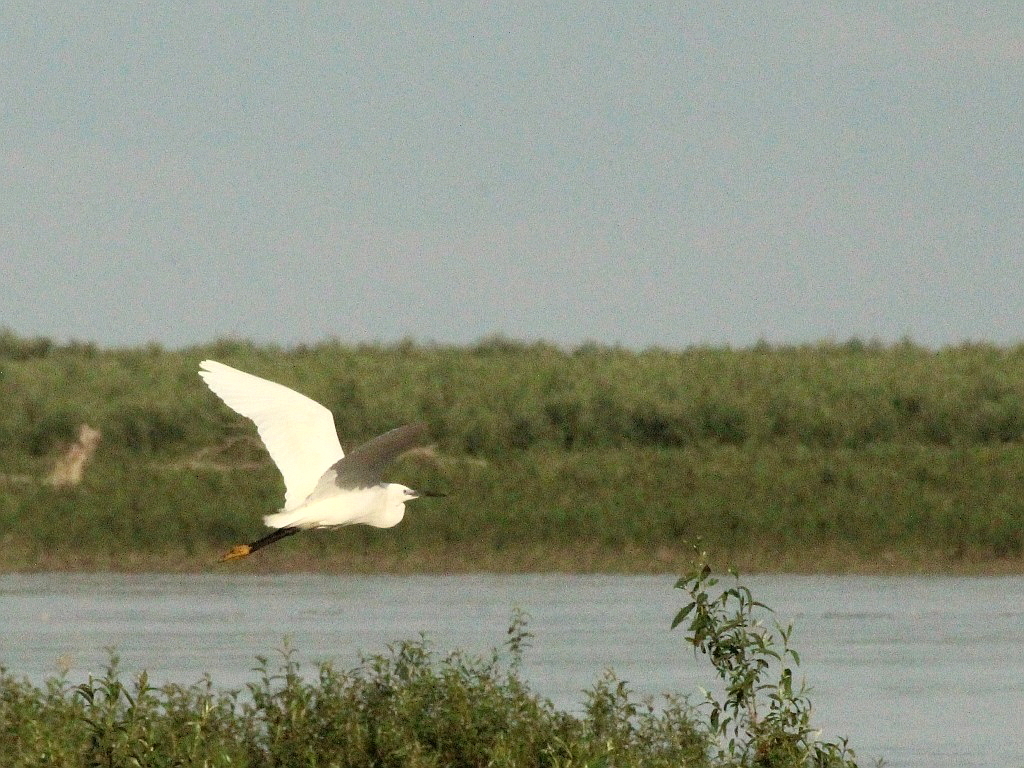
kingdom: Animalia
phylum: Chordata
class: Aves
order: Pelecaniformes
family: Ardeidae
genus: Egretta
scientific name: Egretta garzetta
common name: Little egret
